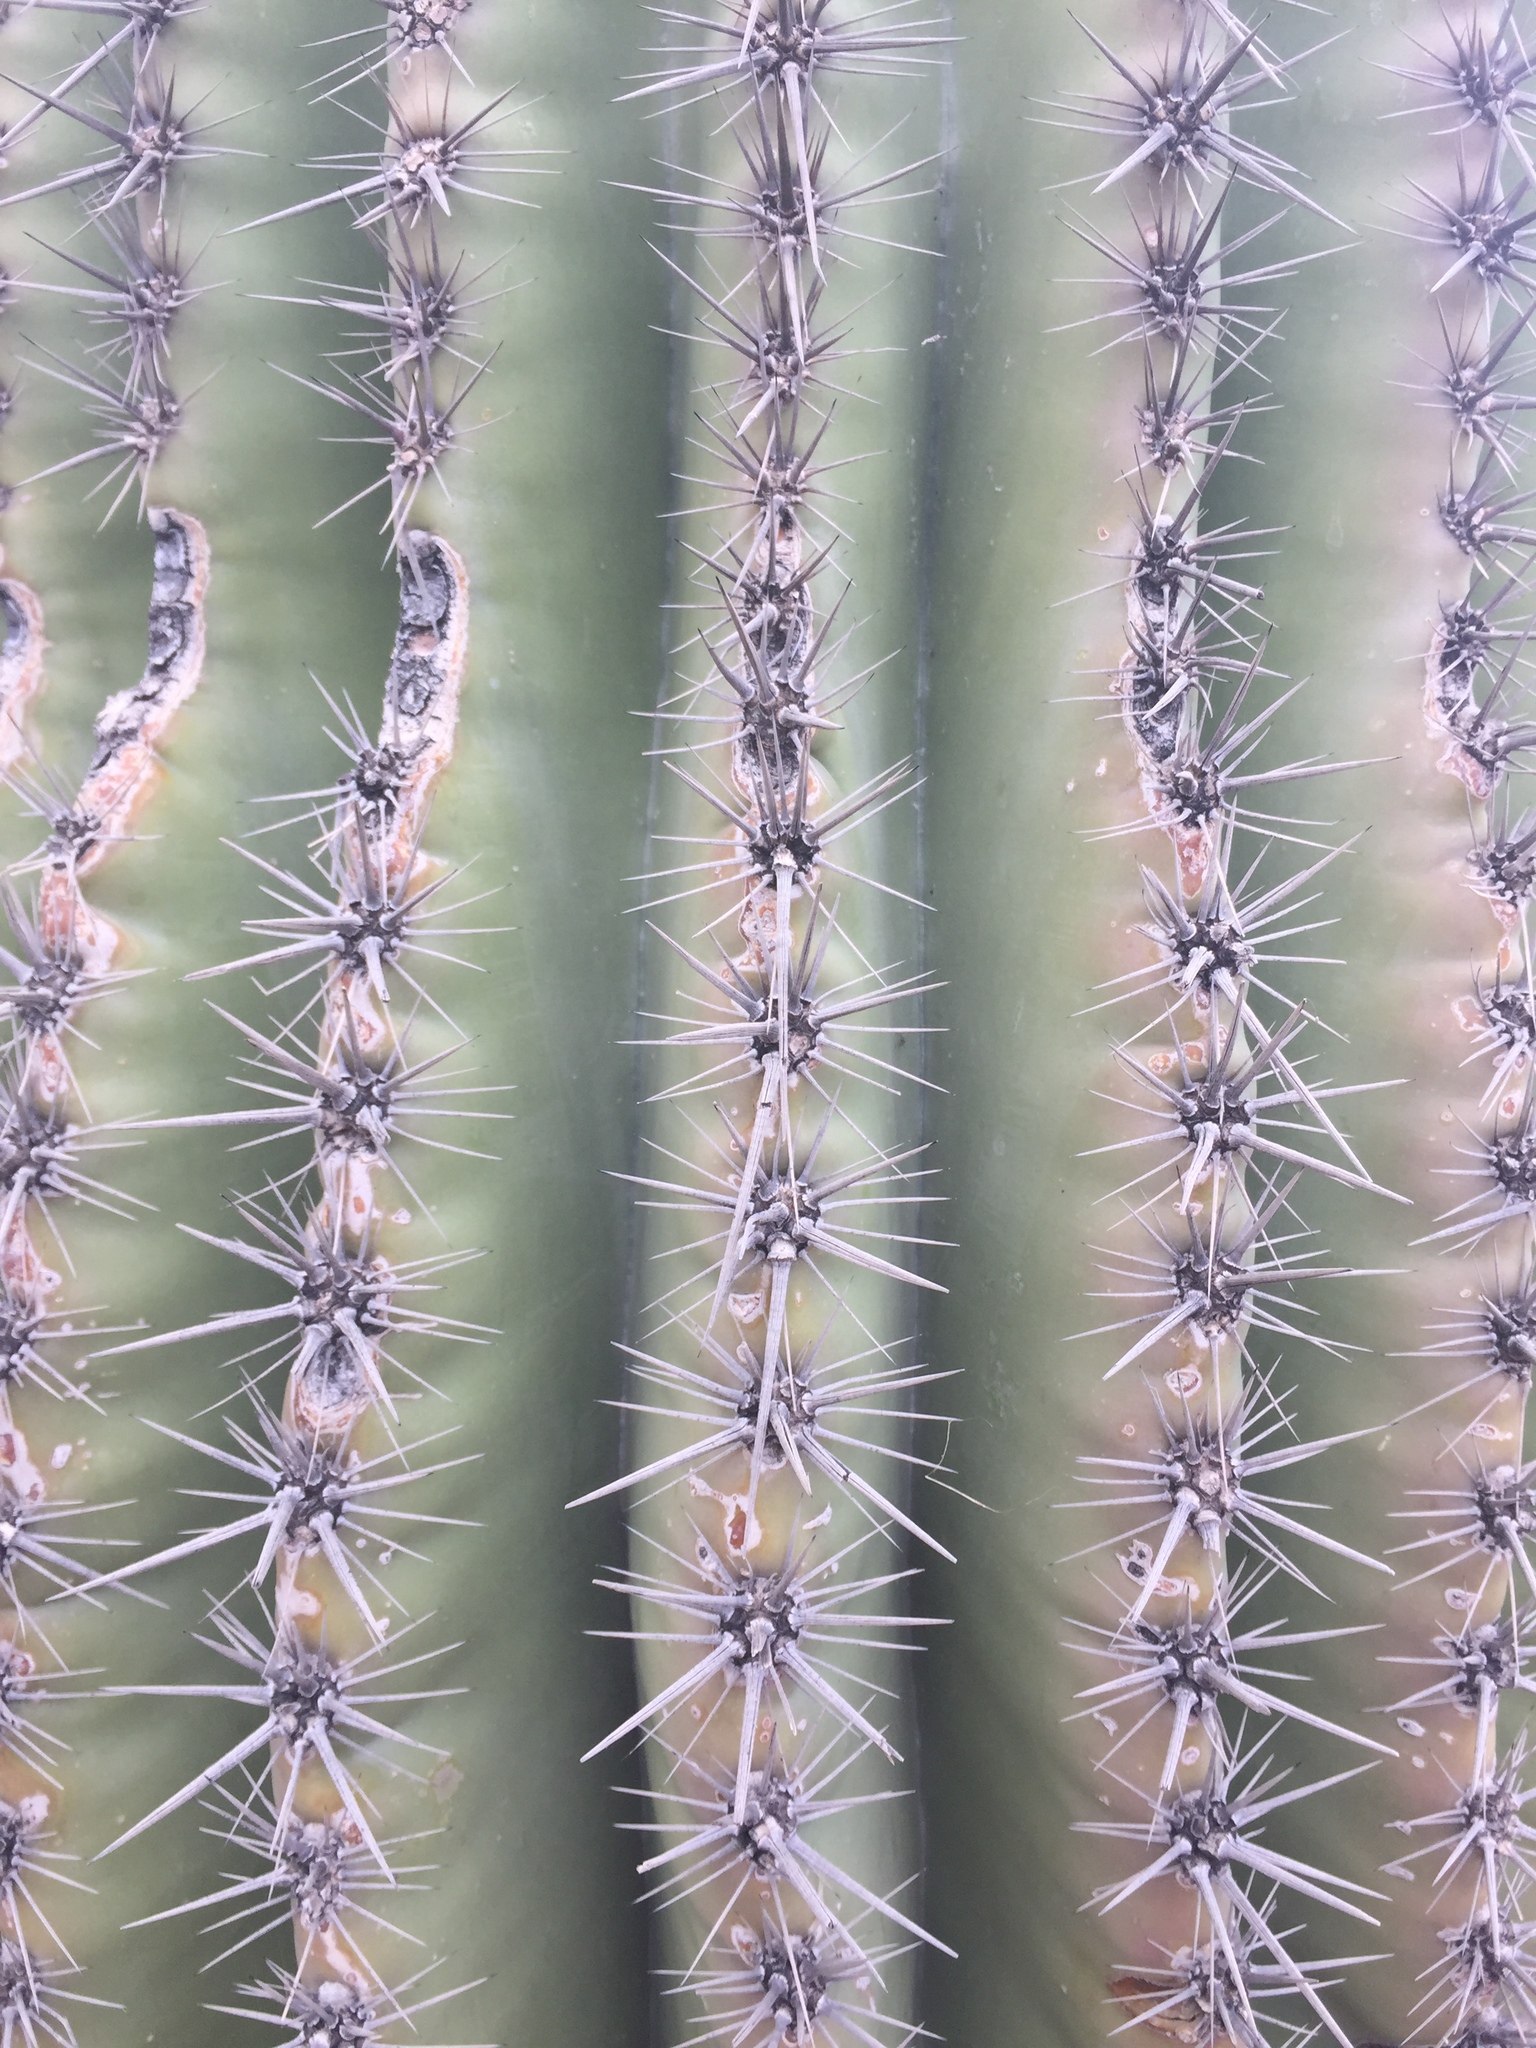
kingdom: Plantae
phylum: Tracheophyta
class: Magnoliopsida
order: Caryophyllales
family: Cactaceae
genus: Carnegiea
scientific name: Carnegiea gigantea
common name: Saguaro
